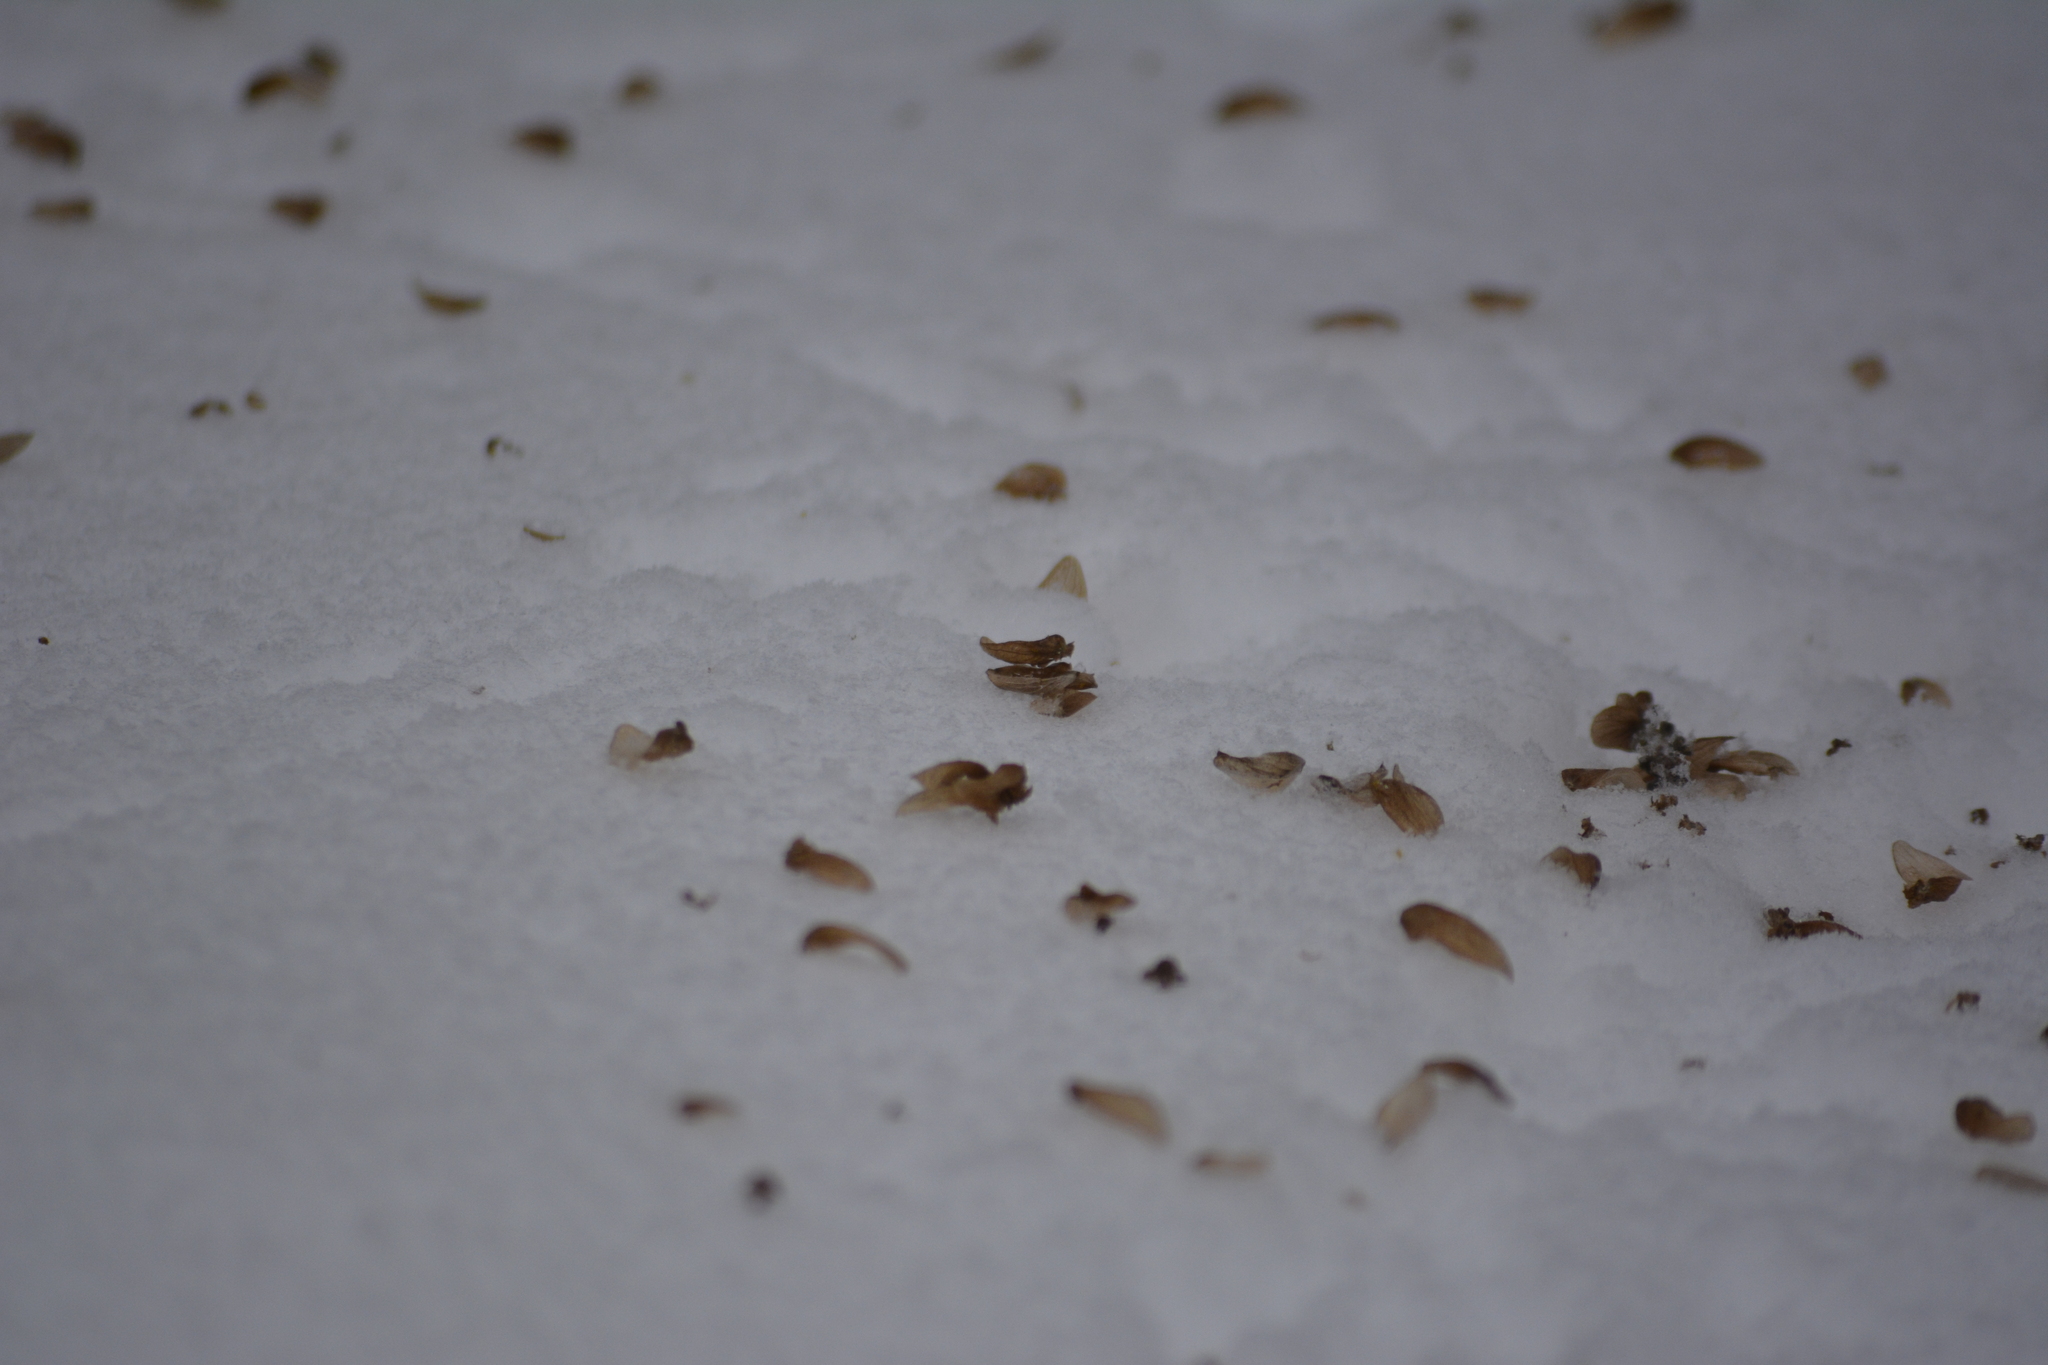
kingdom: Plantae
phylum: Tracheophyta
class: Magnoliopsida
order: Rosales
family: Cannabaceae
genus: Humulus
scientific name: Humulus lupulus
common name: Hop
